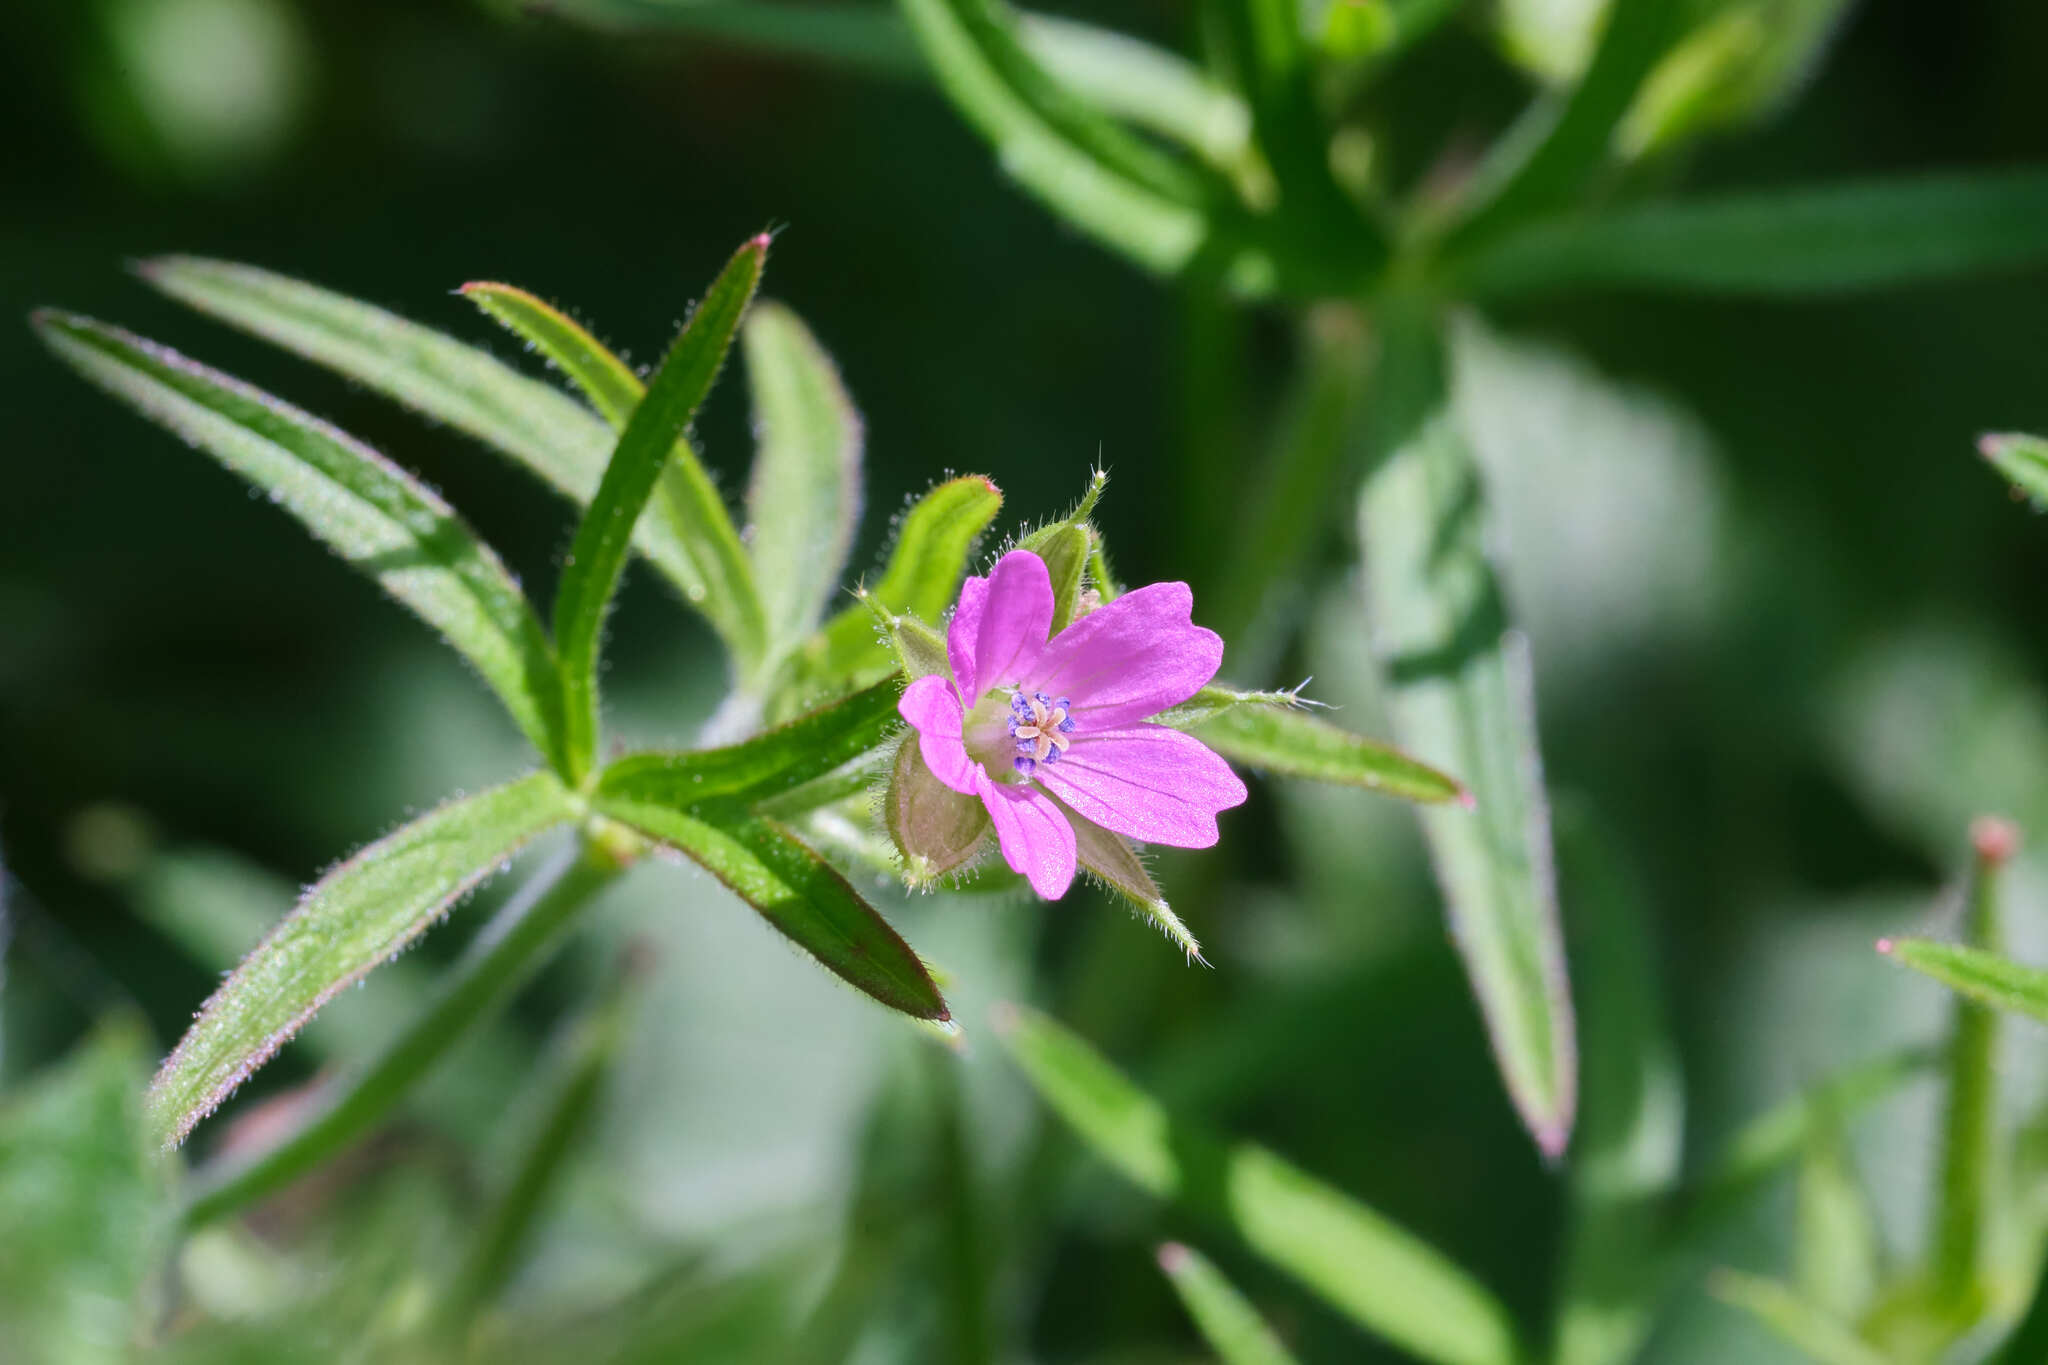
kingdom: Plantae
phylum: Tracheophyta
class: Magnoliopsida
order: Geraniales
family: Geraniaceae
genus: Geranium
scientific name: Geranium dissectum
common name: Cut-leaved crane's-bill
